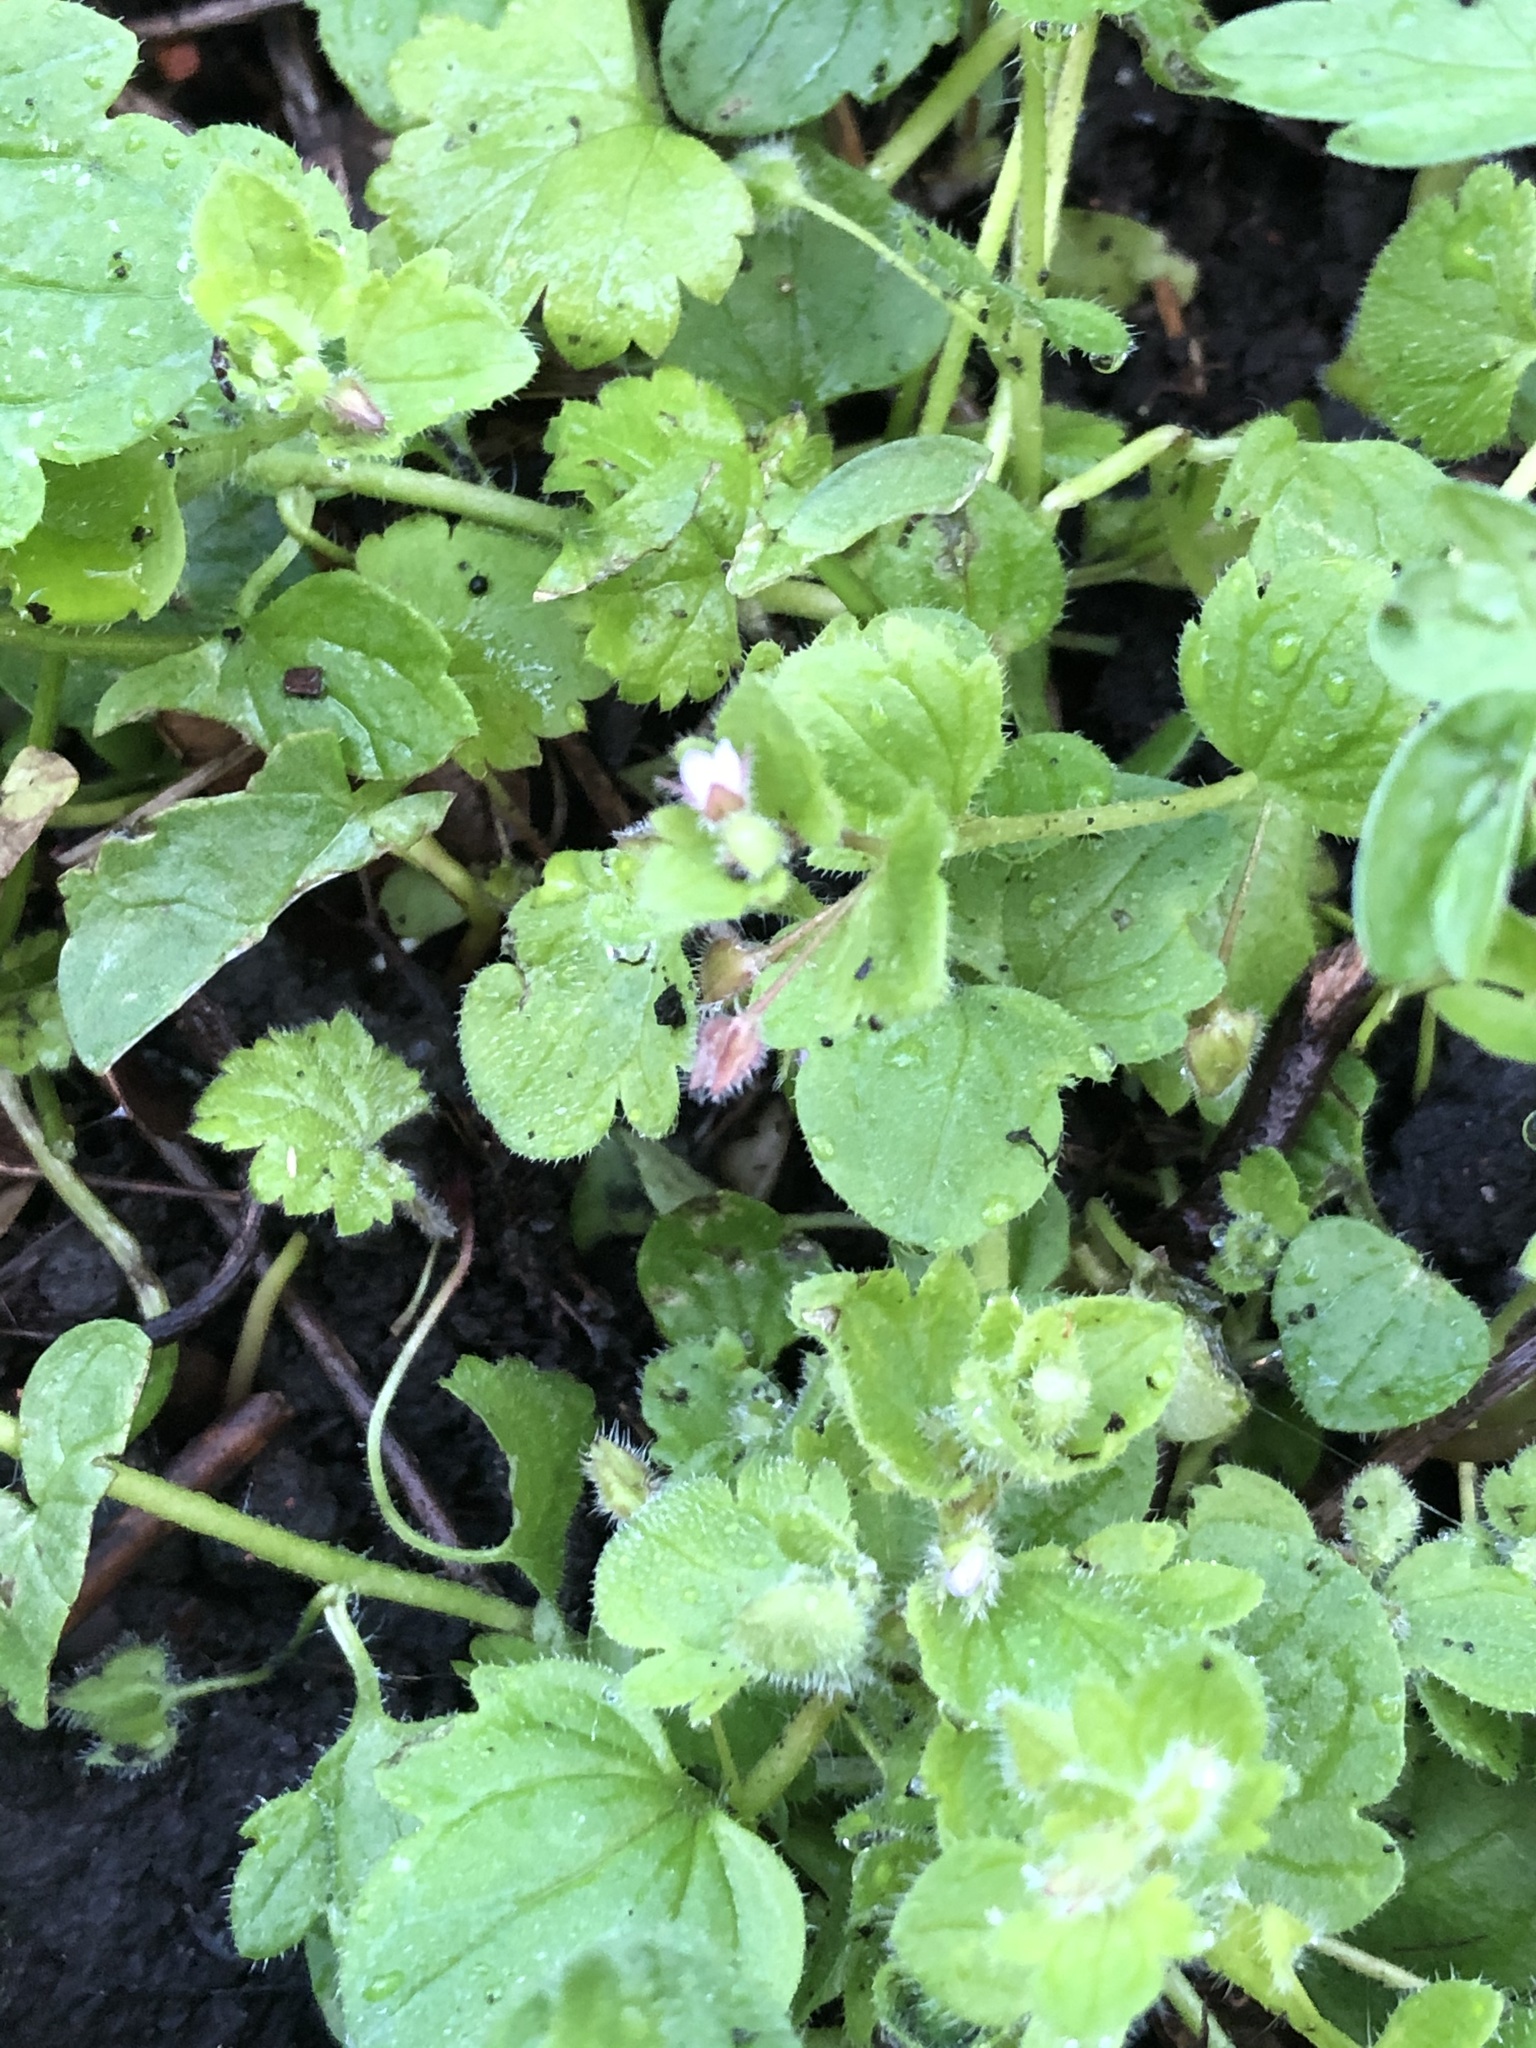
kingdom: Plantae
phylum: Tracheophyta
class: Magnoliopsida
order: Lamiales
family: Plantaginaceae
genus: Veronica
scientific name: Veronica sublobata
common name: False ivy-leaved speedwell
